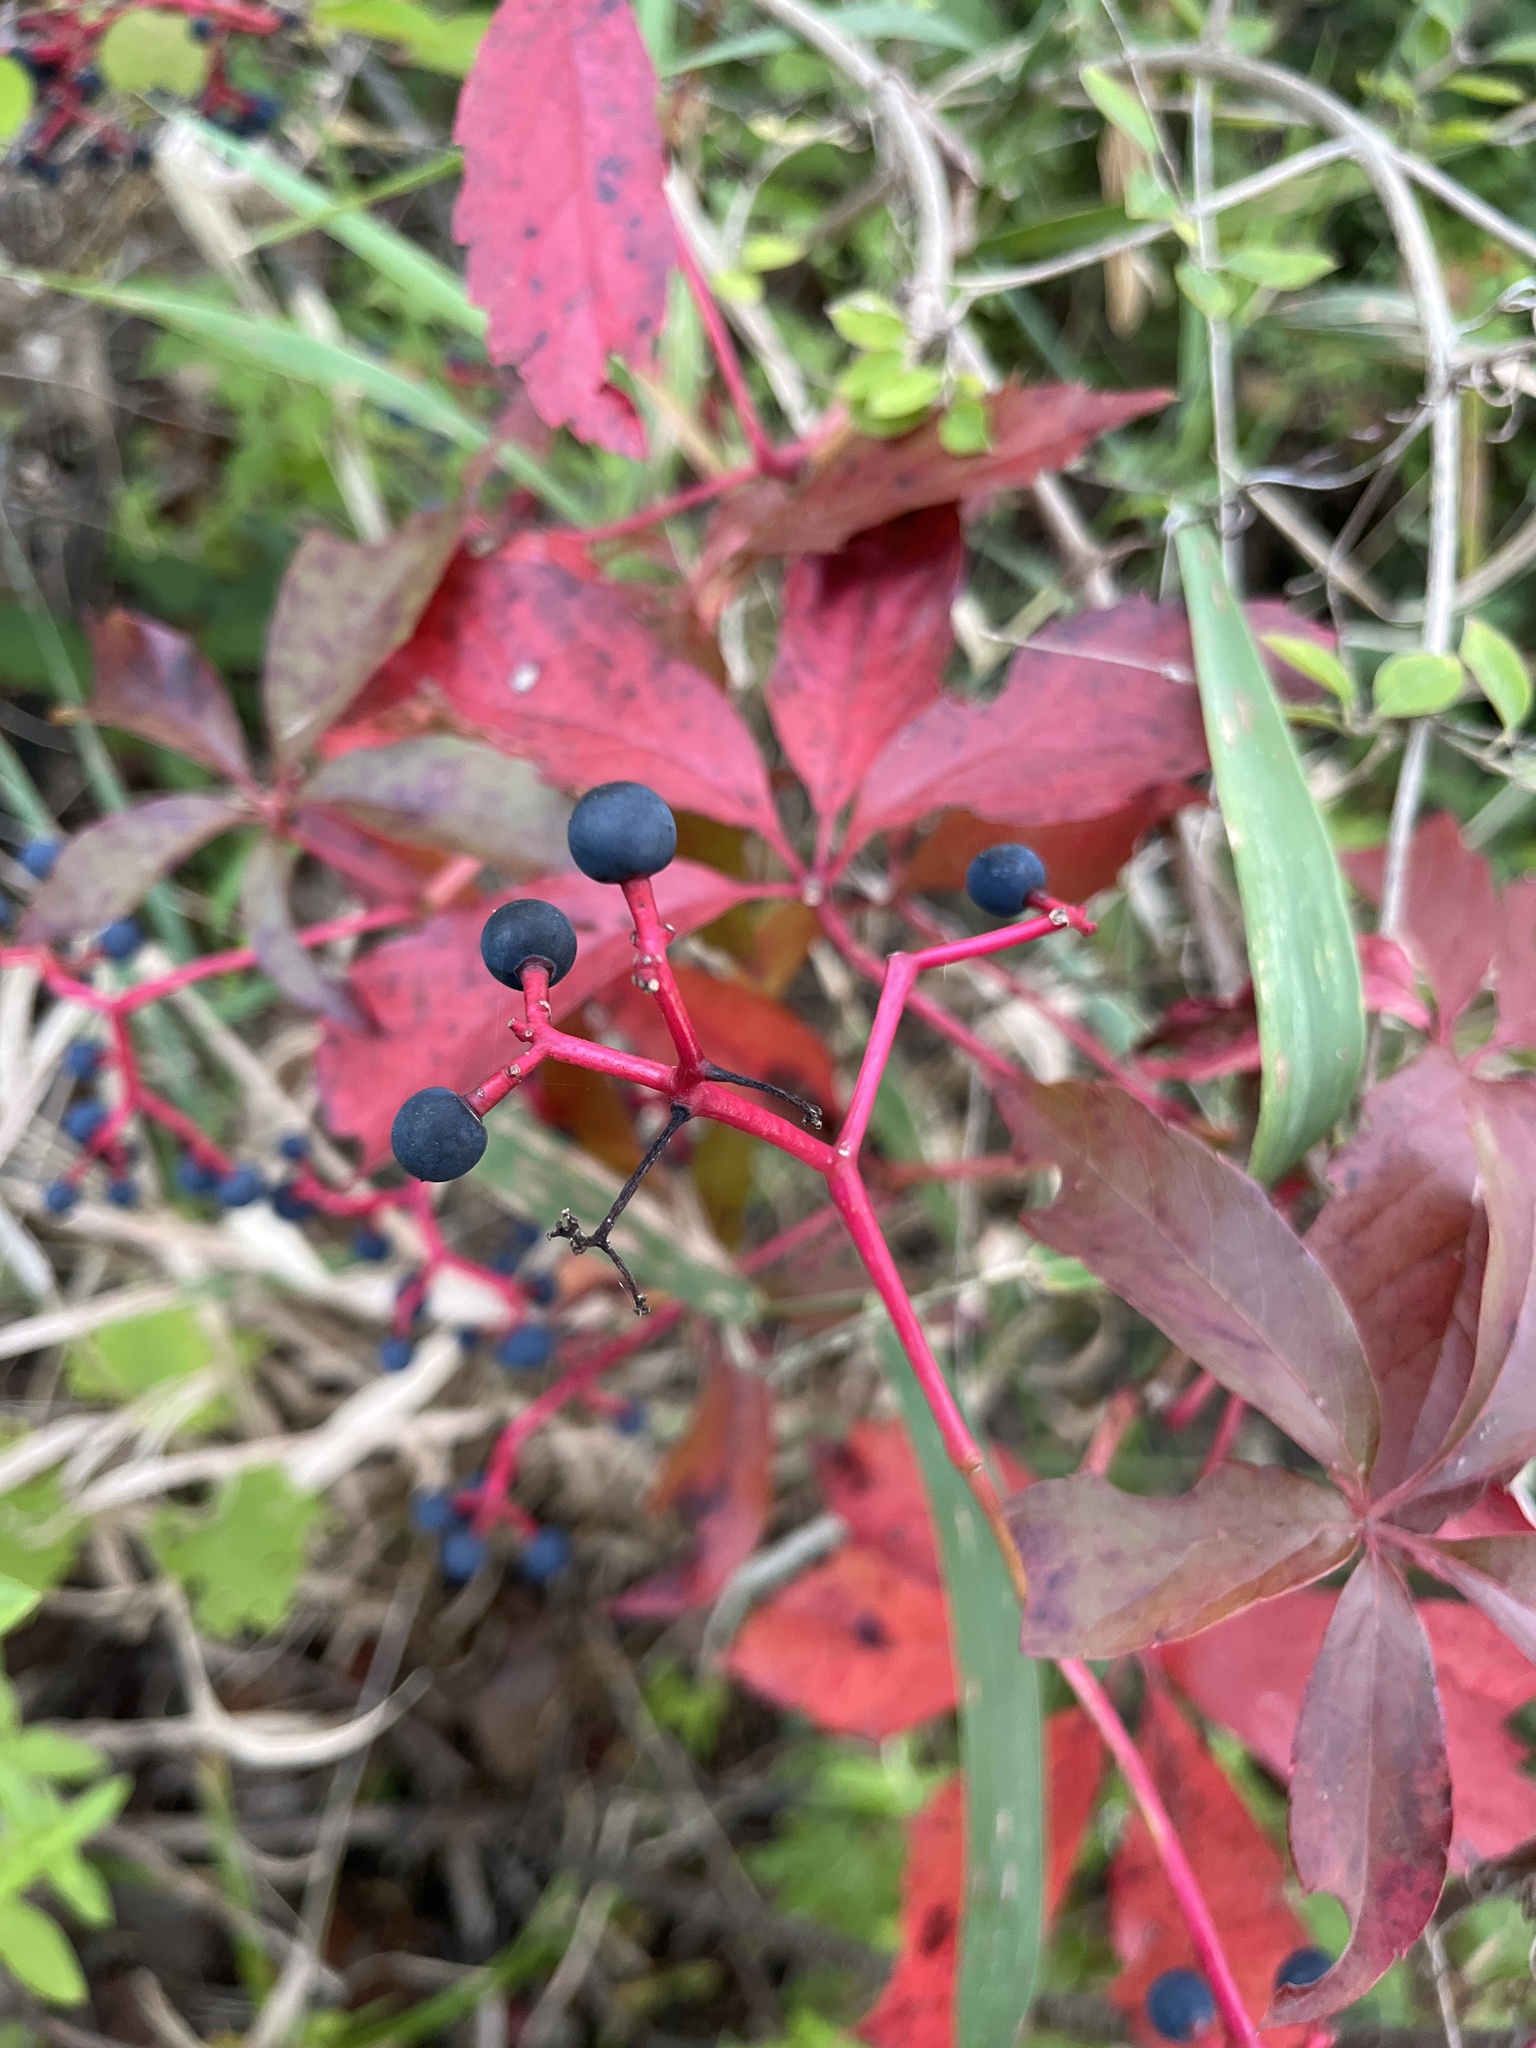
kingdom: Plantae
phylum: Tracheophyta
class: Magnoliopsida
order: Vitales
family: Vitaceae
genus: Parthenocissus
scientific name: Parthenocissus quinquefolia
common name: Virginia-creeper
